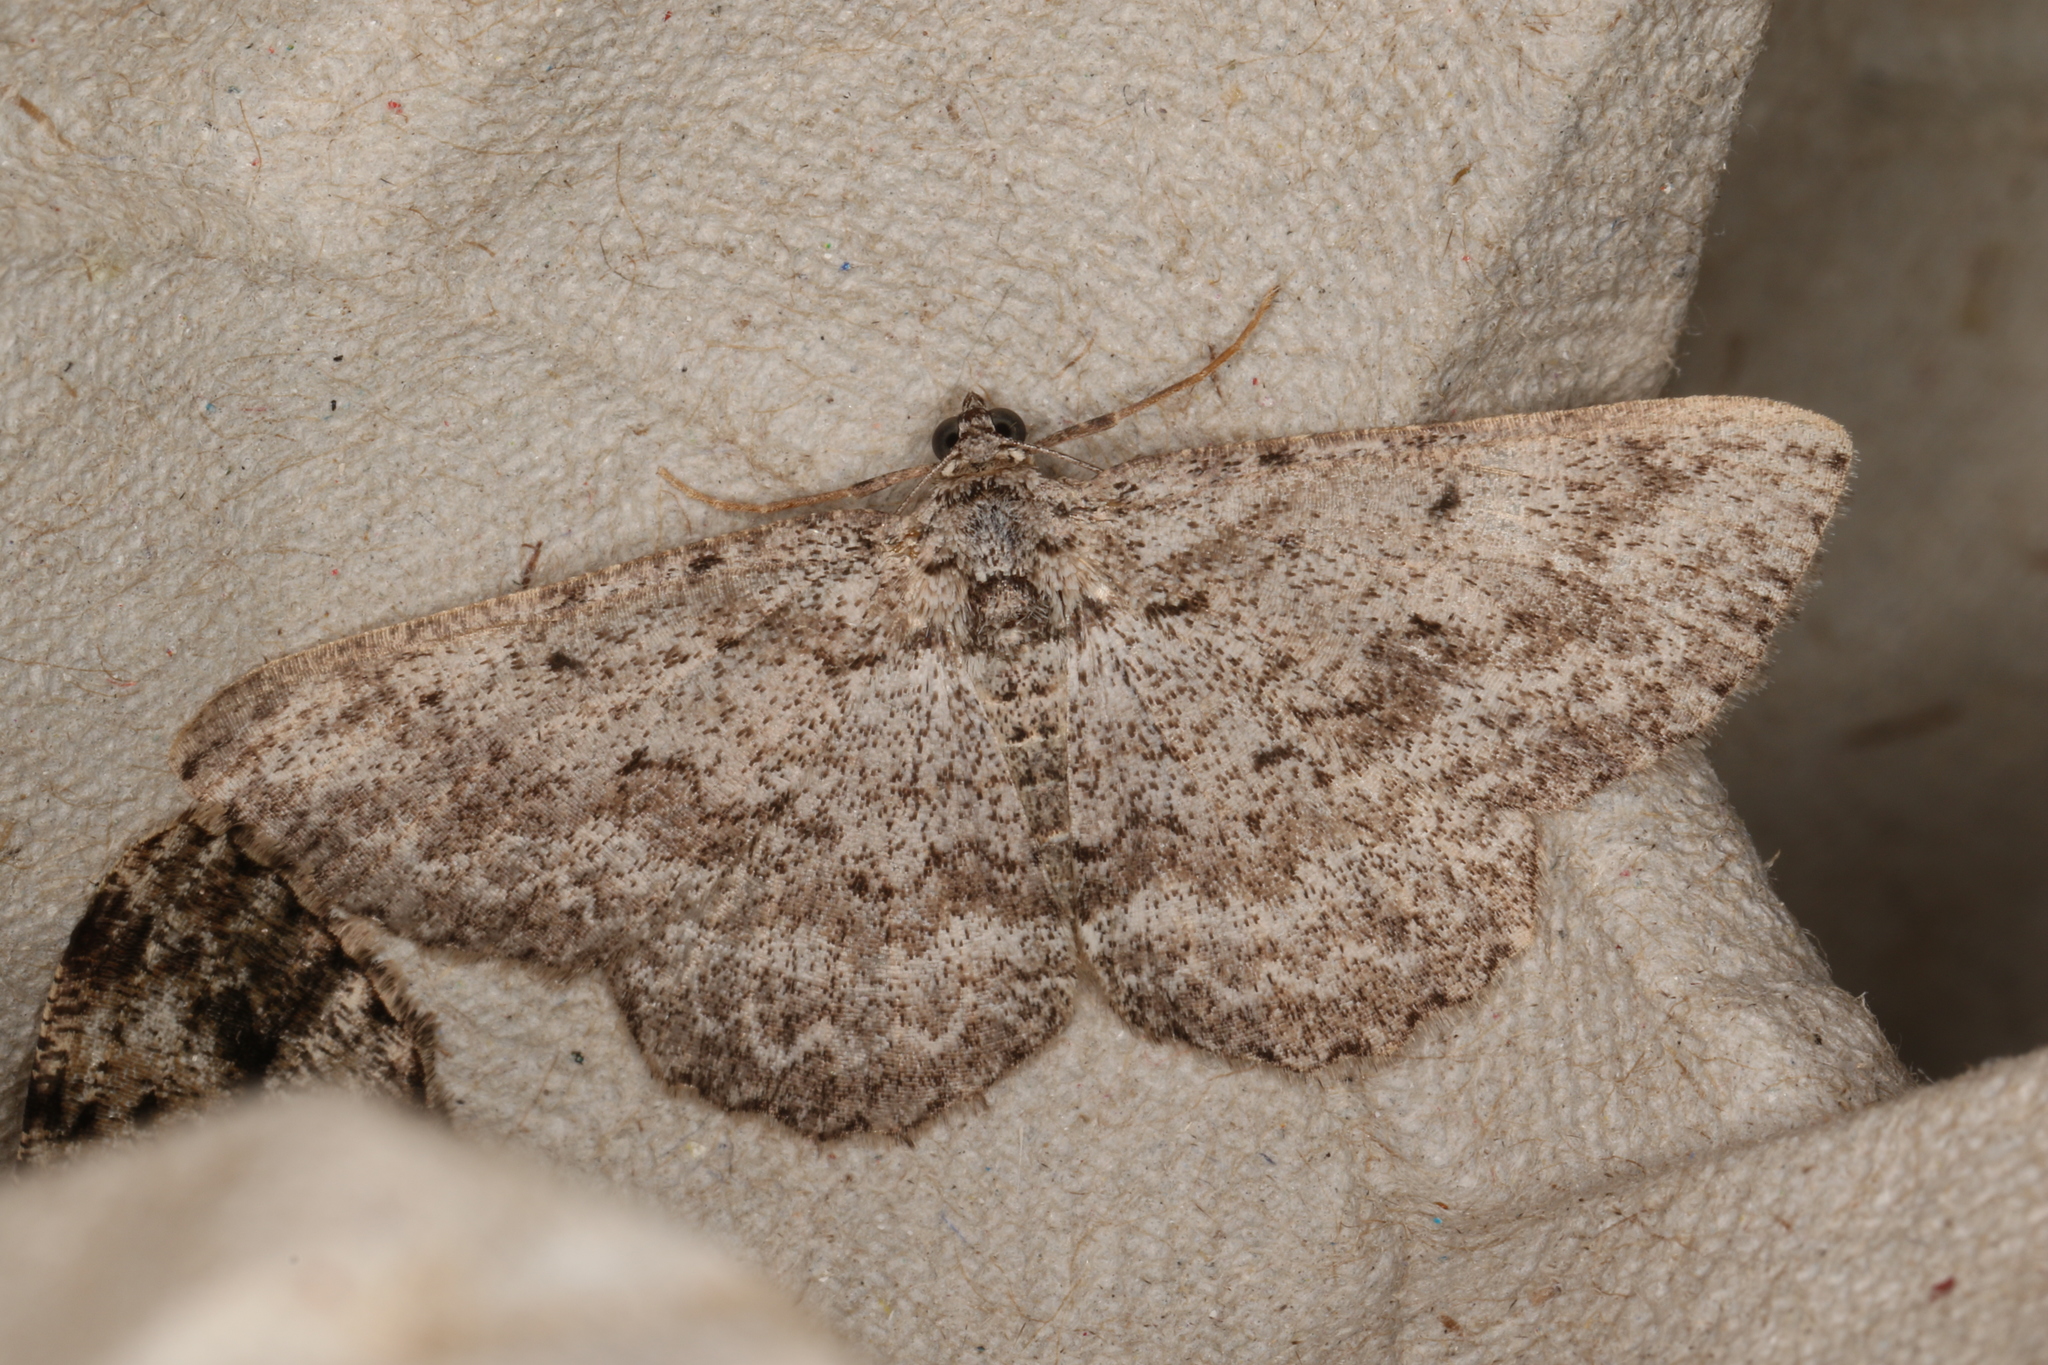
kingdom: Animalia
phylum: Arthropoda
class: Insecta
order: Lepidoptera
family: Geometridae
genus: Psilosticha
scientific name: Psilosticha absorpta
